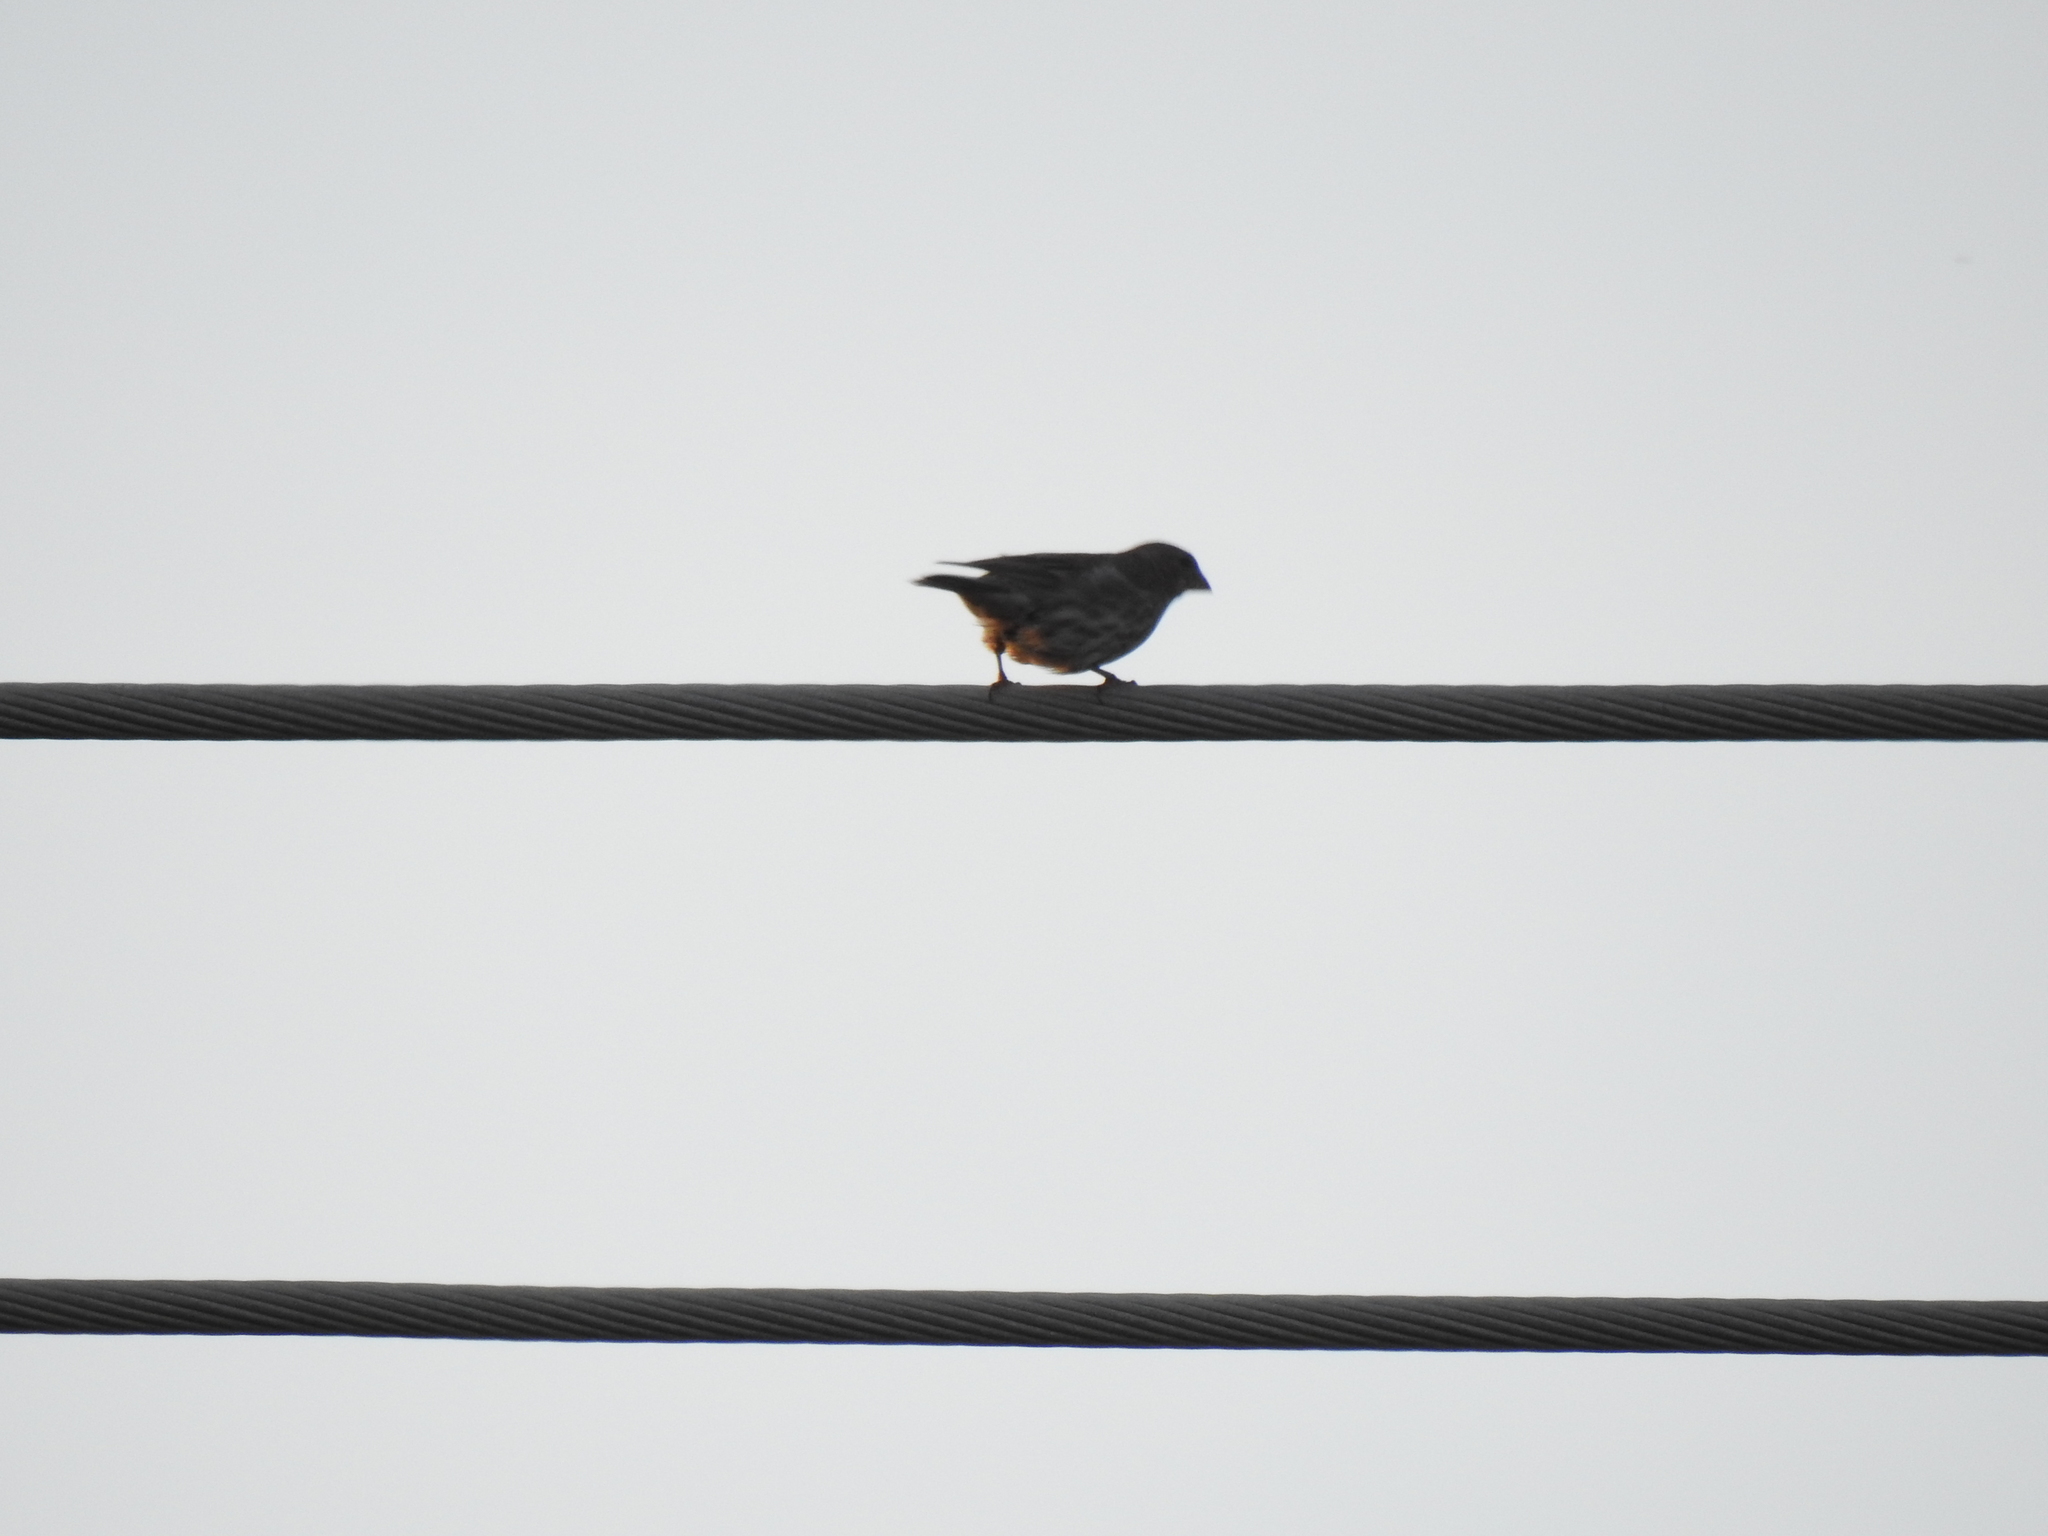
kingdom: Animalia
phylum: Chordata
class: Aves
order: Passeriformes
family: Fringillidae
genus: Haemorhous
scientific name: Haemorhous mexicanus
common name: House finch
